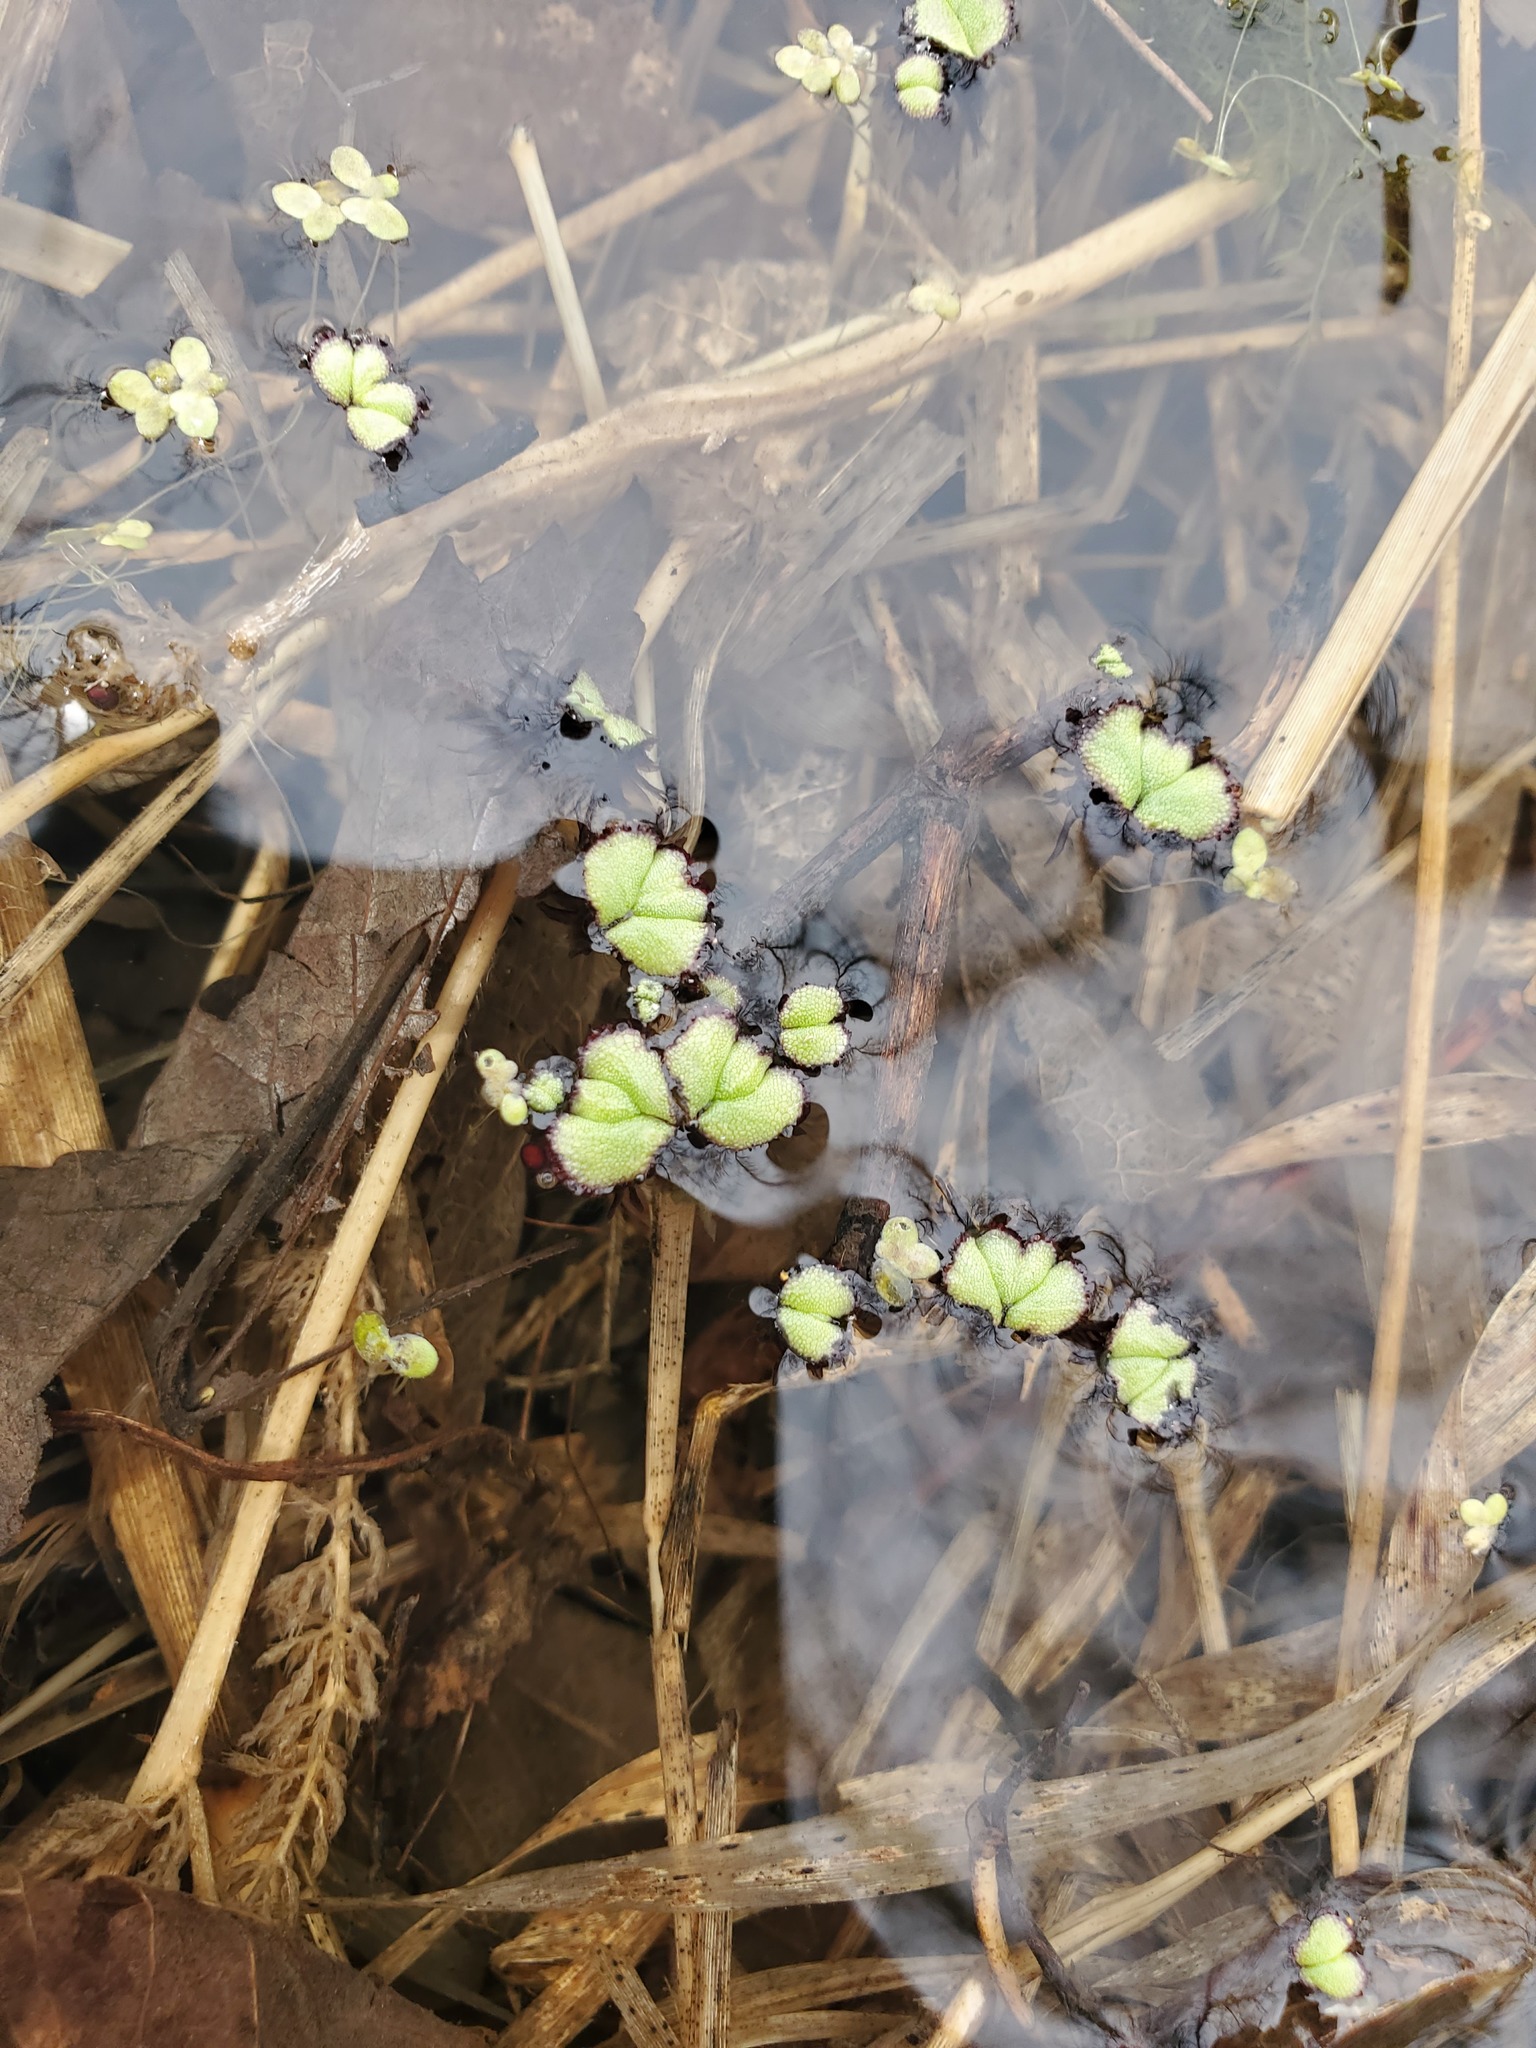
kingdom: Plantae
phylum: Marchantiophyta
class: Marchantiopsida
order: Marchantiales
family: Ricciaceae
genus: Ricciocarpos
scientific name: Ricciocarpos natans
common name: Purple-fringed liverwort
